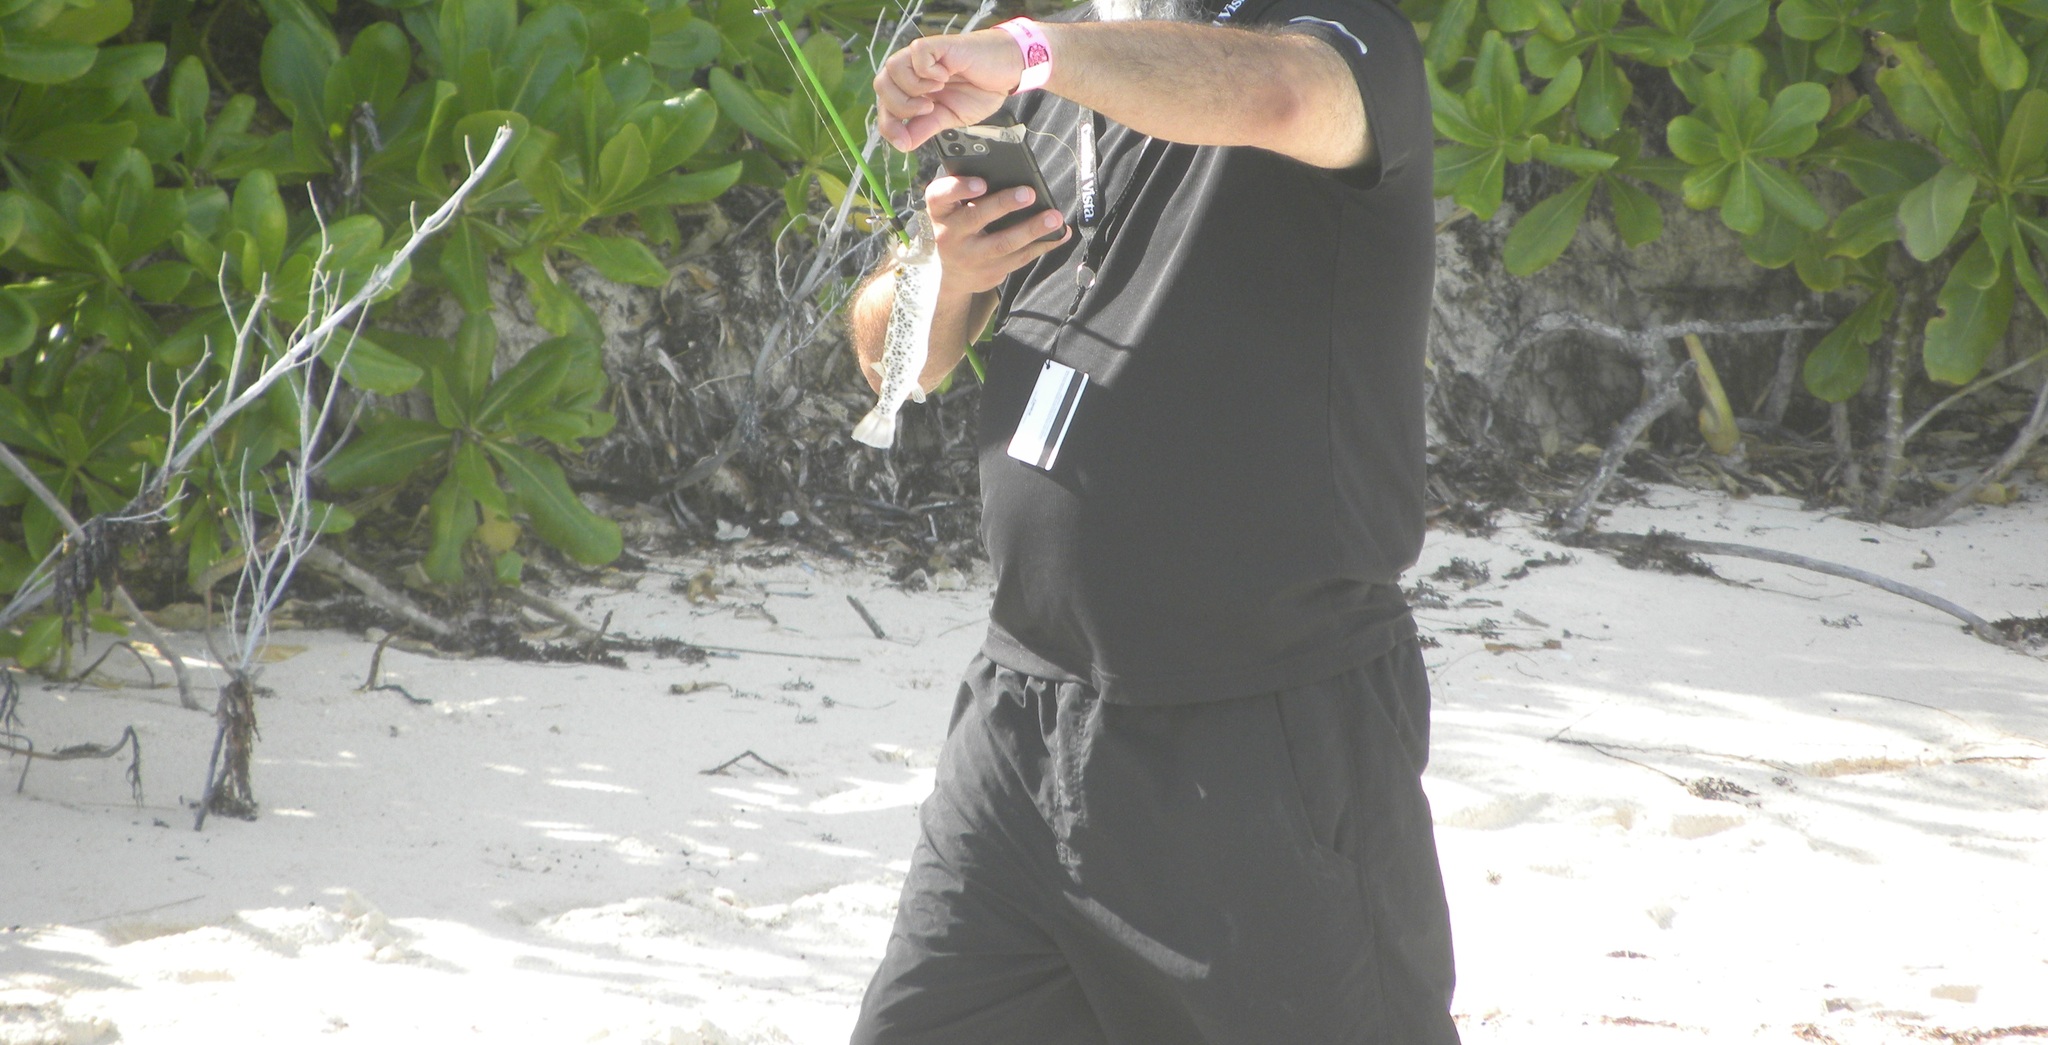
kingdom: Animalia
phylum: Chordata
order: Tetraodontiformes
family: Tetraodontidae
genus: Sphoeroides
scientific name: Sphoeroides testudineus
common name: Checkered puffer
